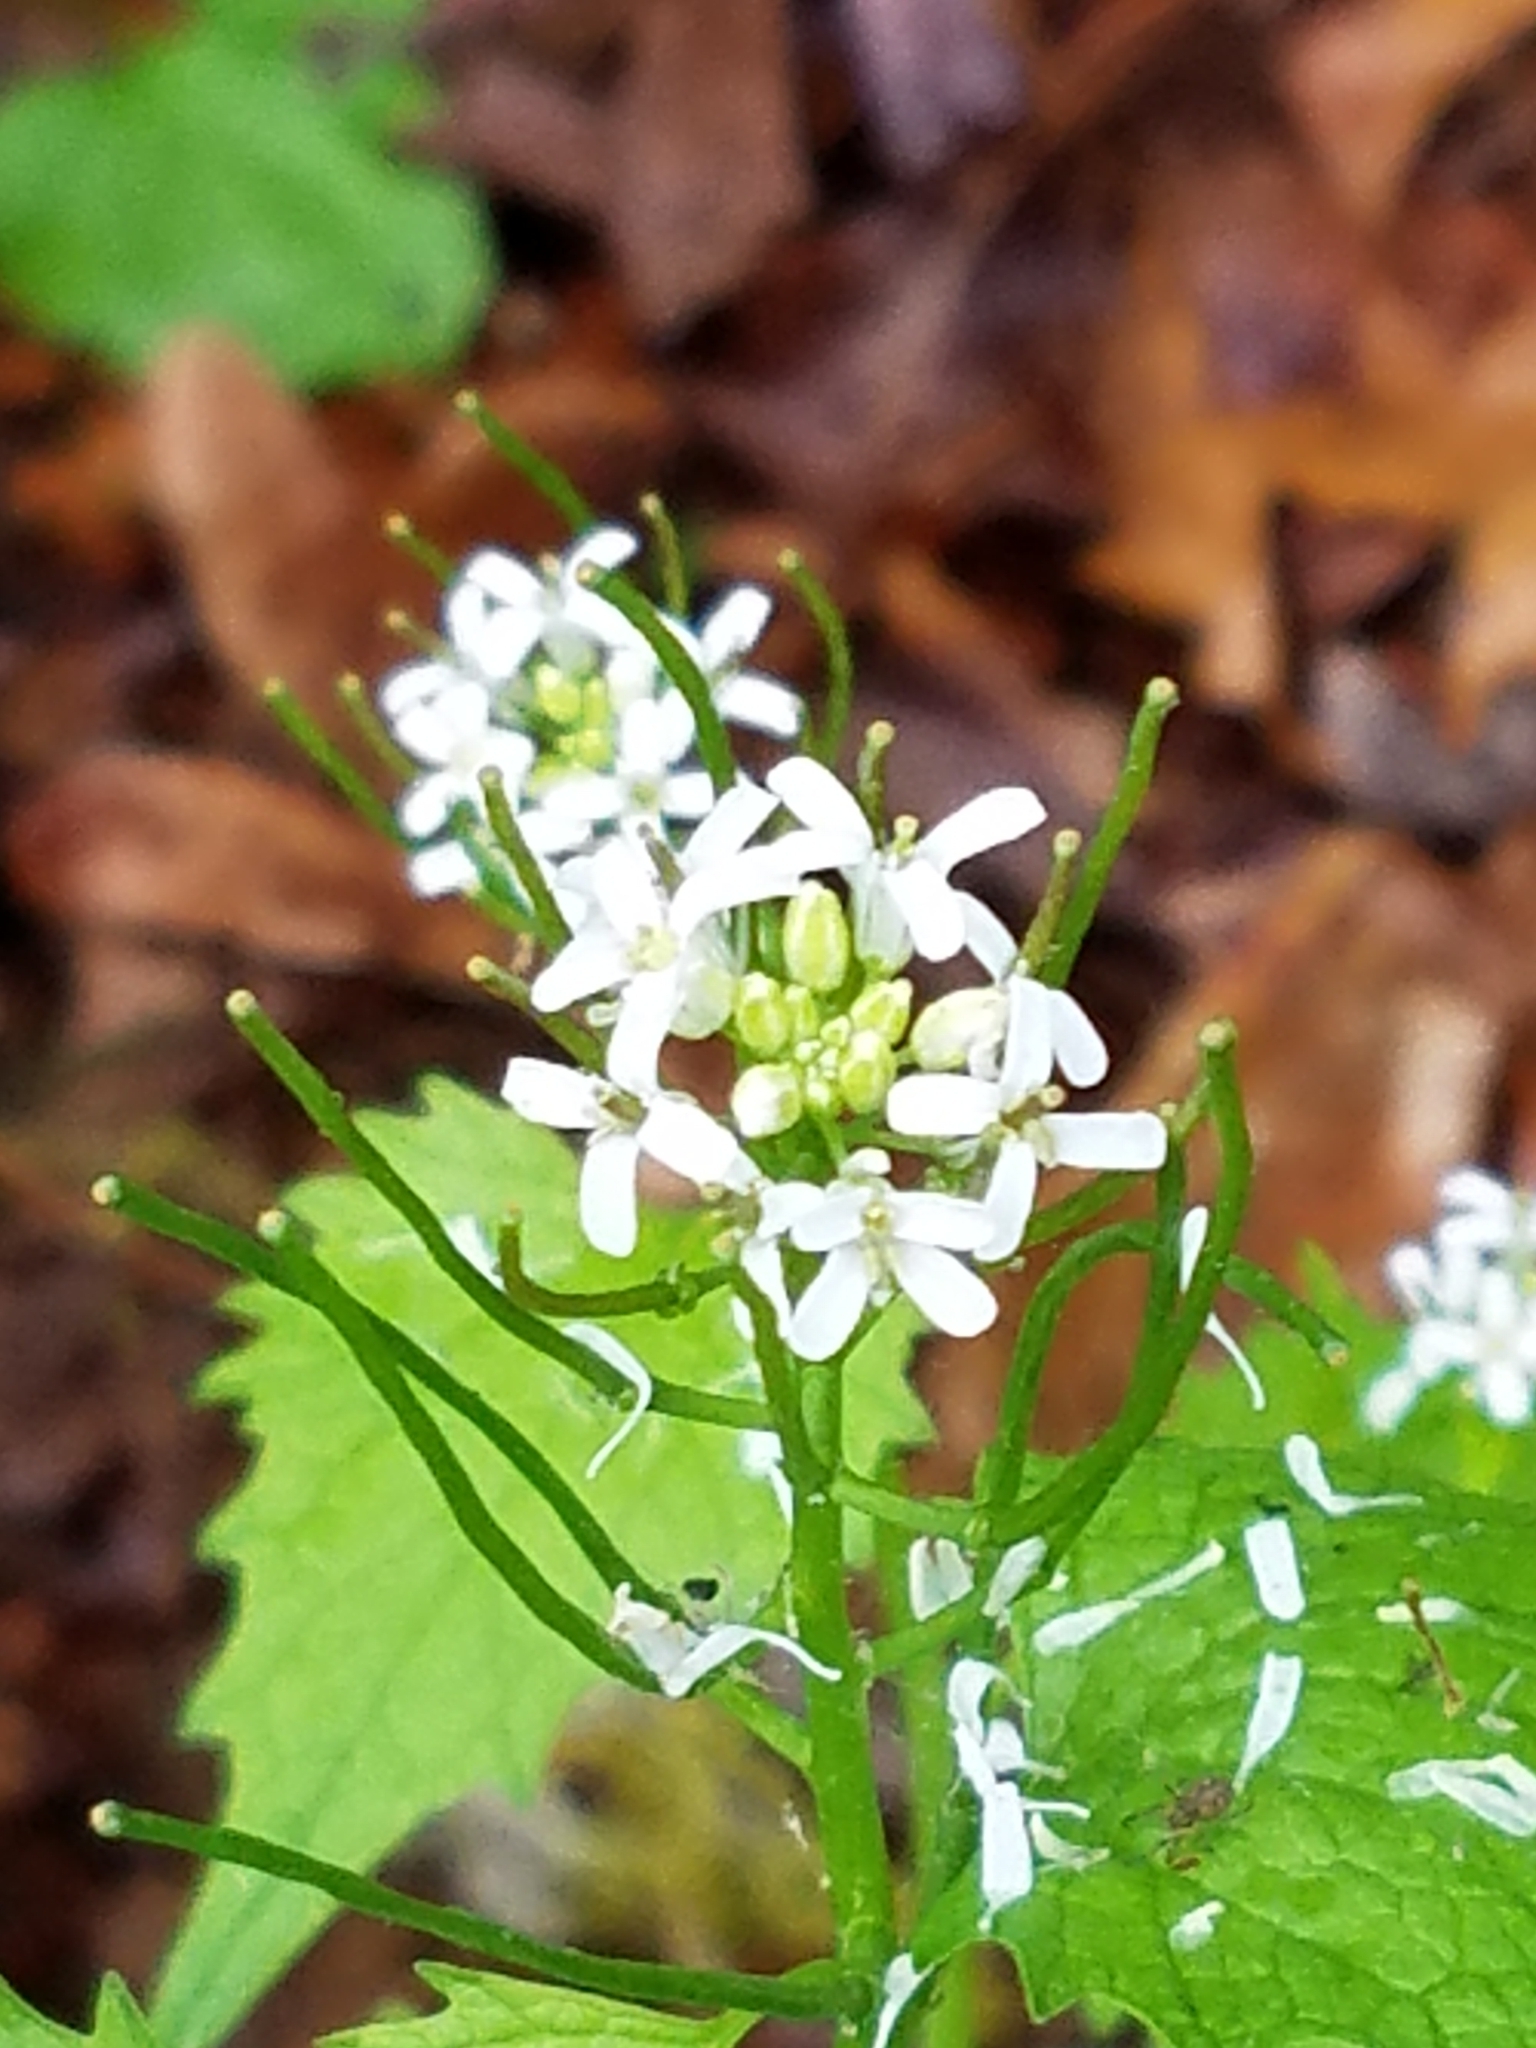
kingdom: Plantae
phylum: Tracheophyta
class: Magnoliopsida
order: Brassicales
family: Brassicaceae
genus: Alliaria
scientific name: Alliaria petiolata
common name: Garlic mustard
